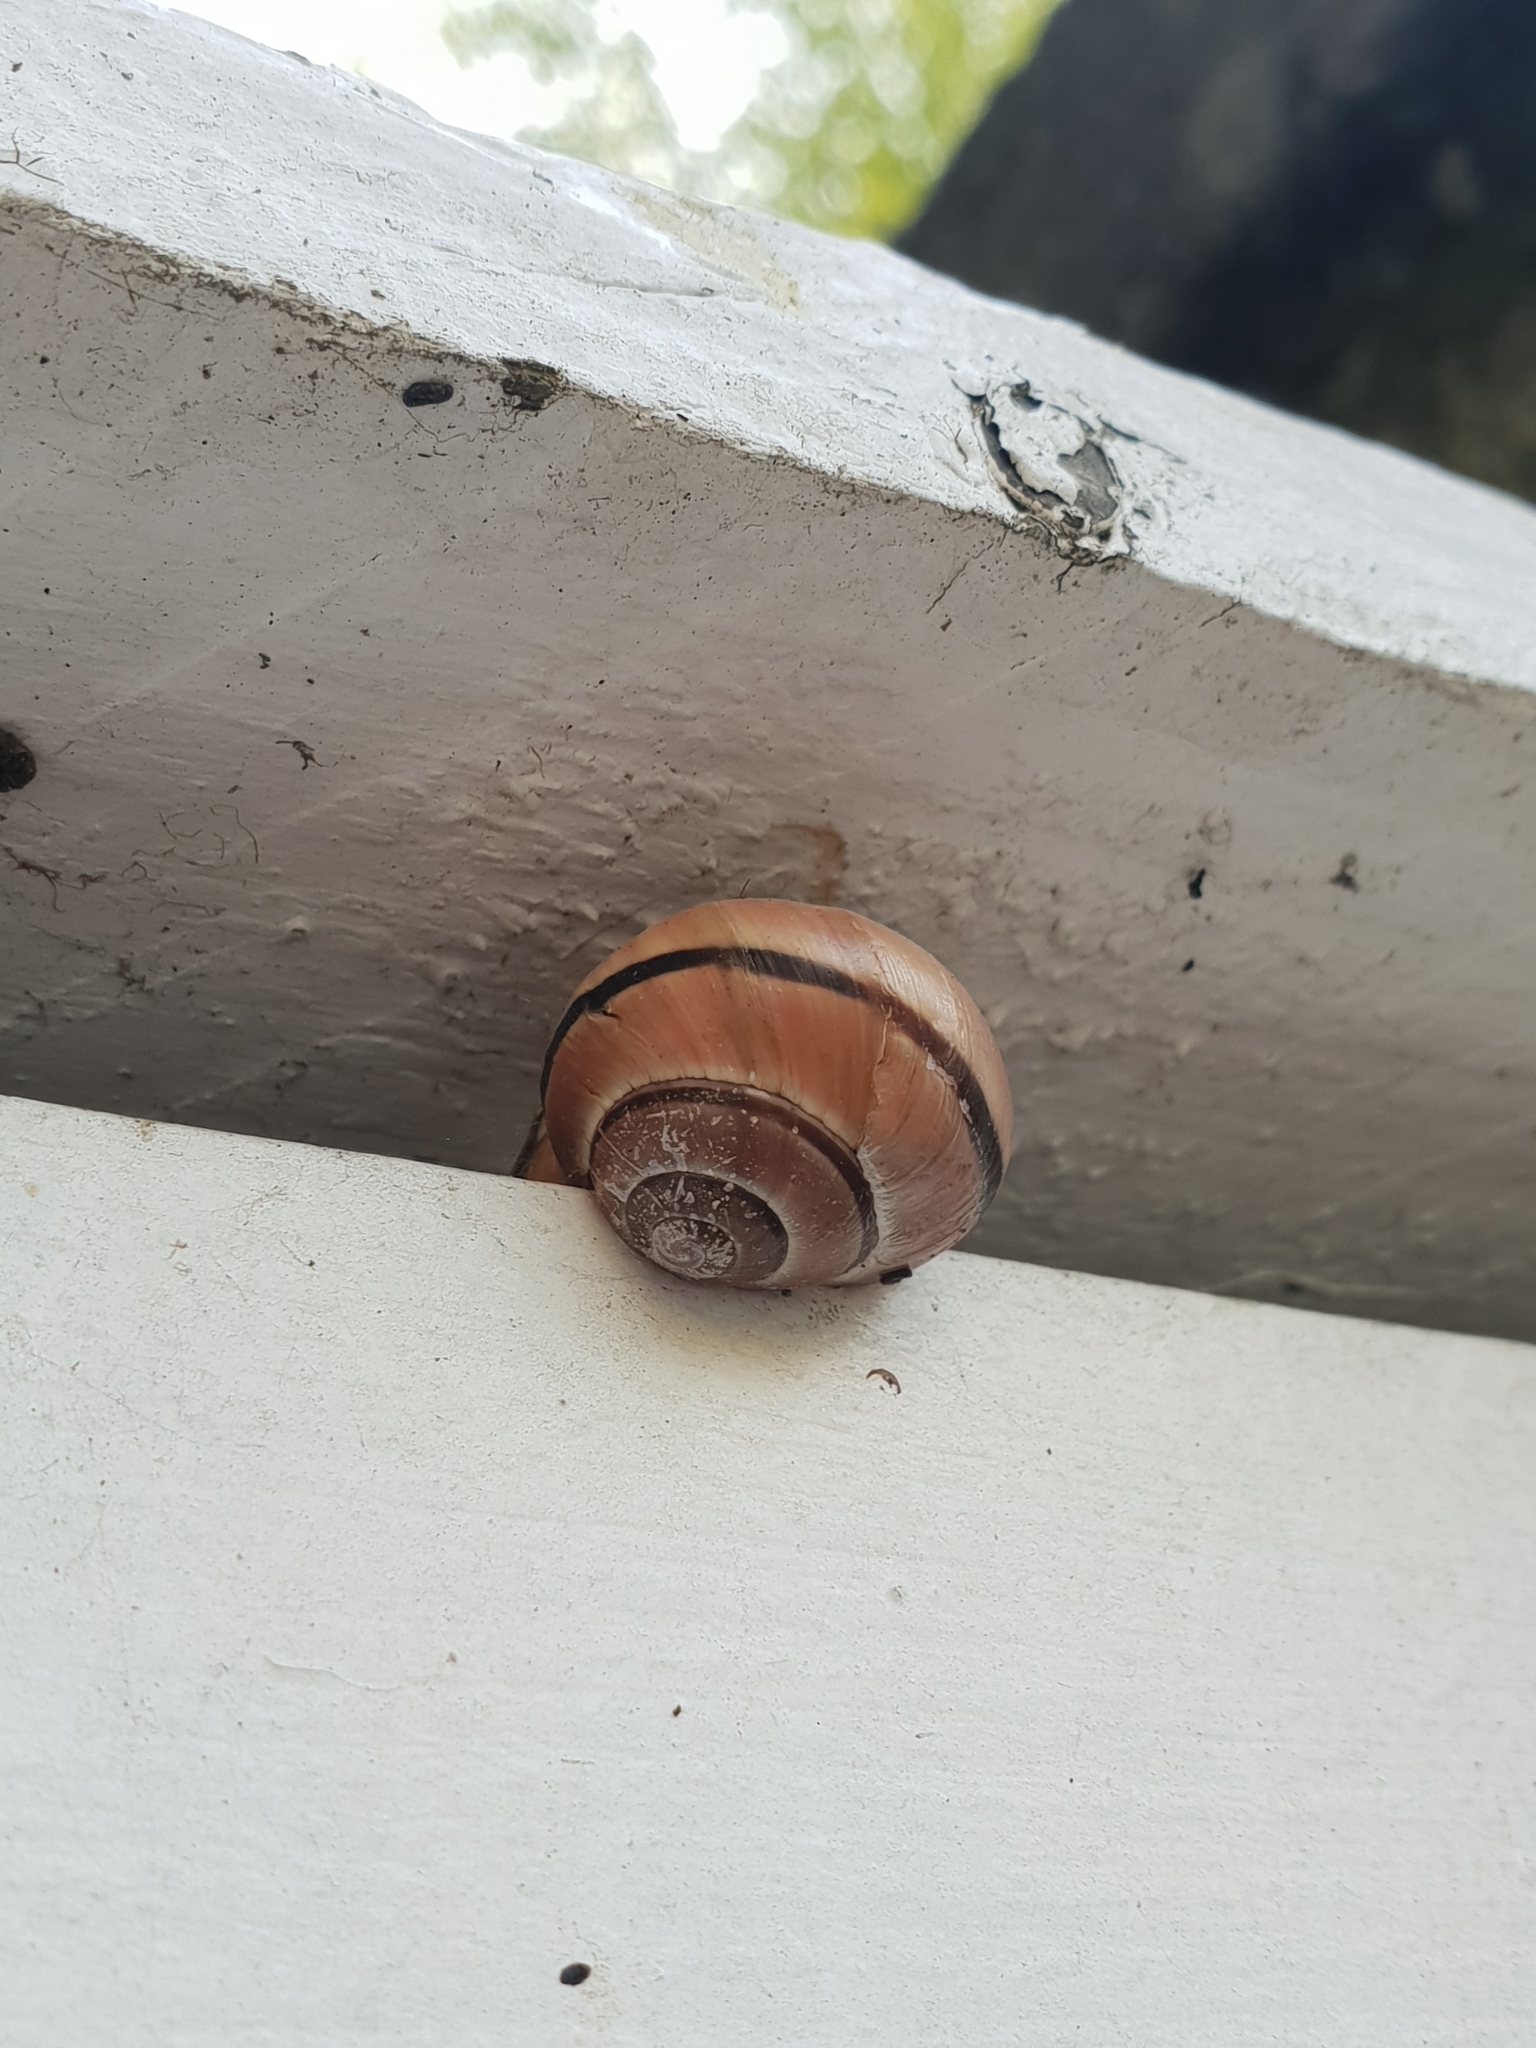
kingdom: Animalia
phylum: Mollusca
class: Gastropoda
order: Stylommatophora
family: Helicidae
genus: Cepaea
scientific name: Cepaea
